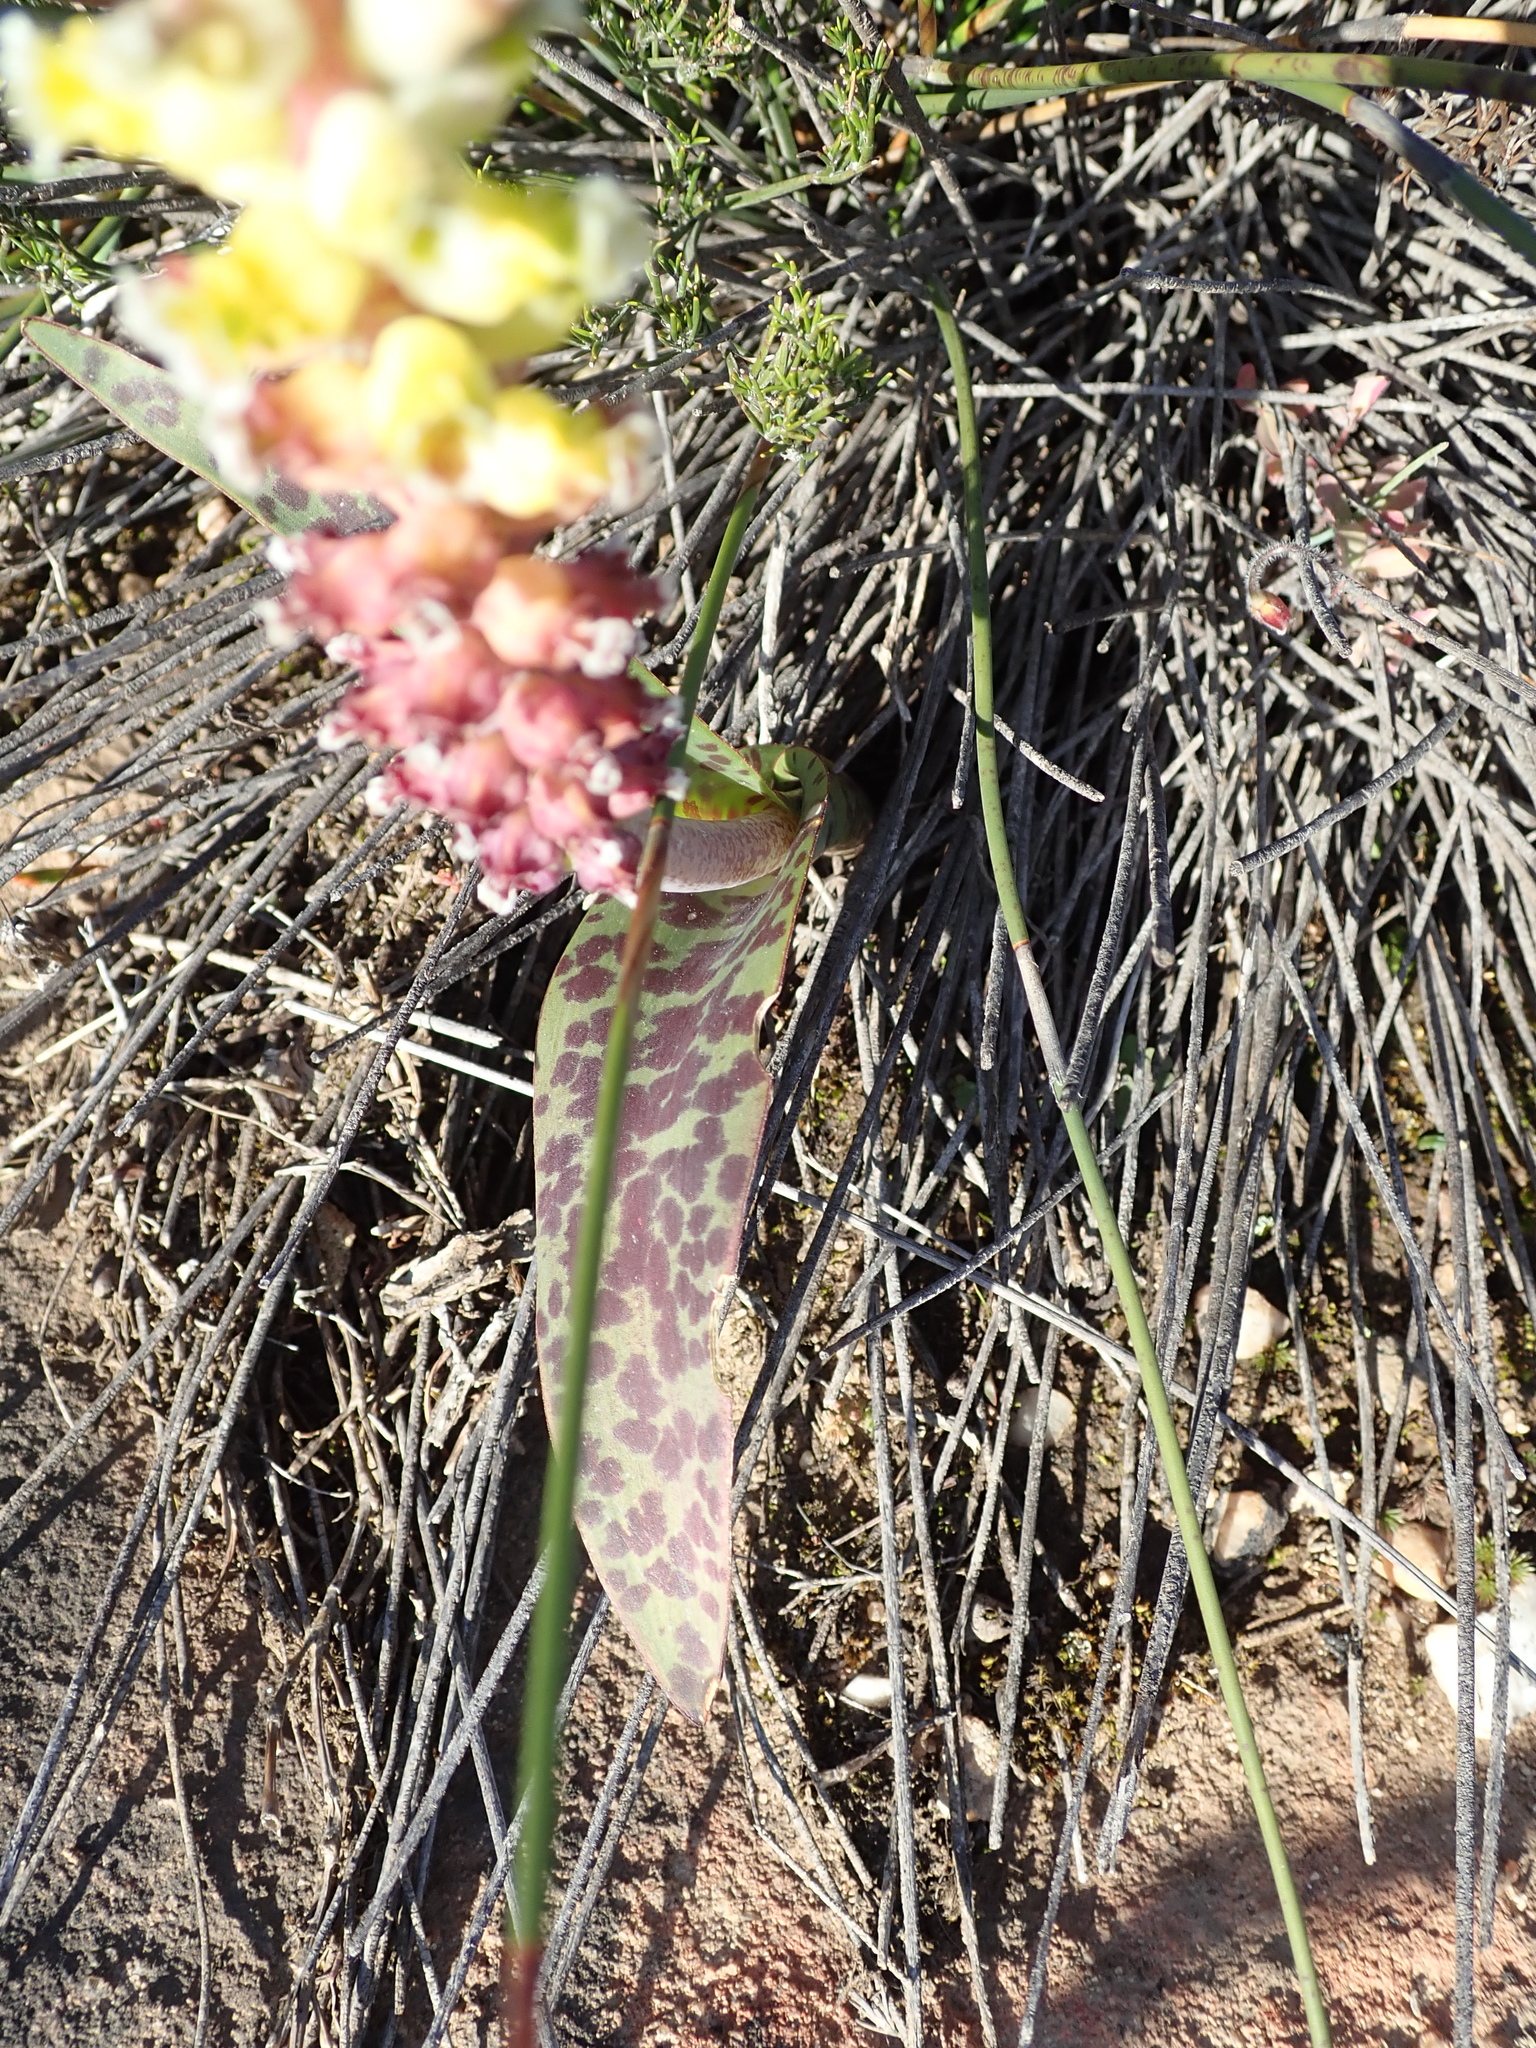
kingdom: Plantae
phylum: Tracheophyta
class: Liliopsida
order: Asparagales
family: Asparagaceae
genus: Lachenalia
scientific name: Lachenalia membranacea
